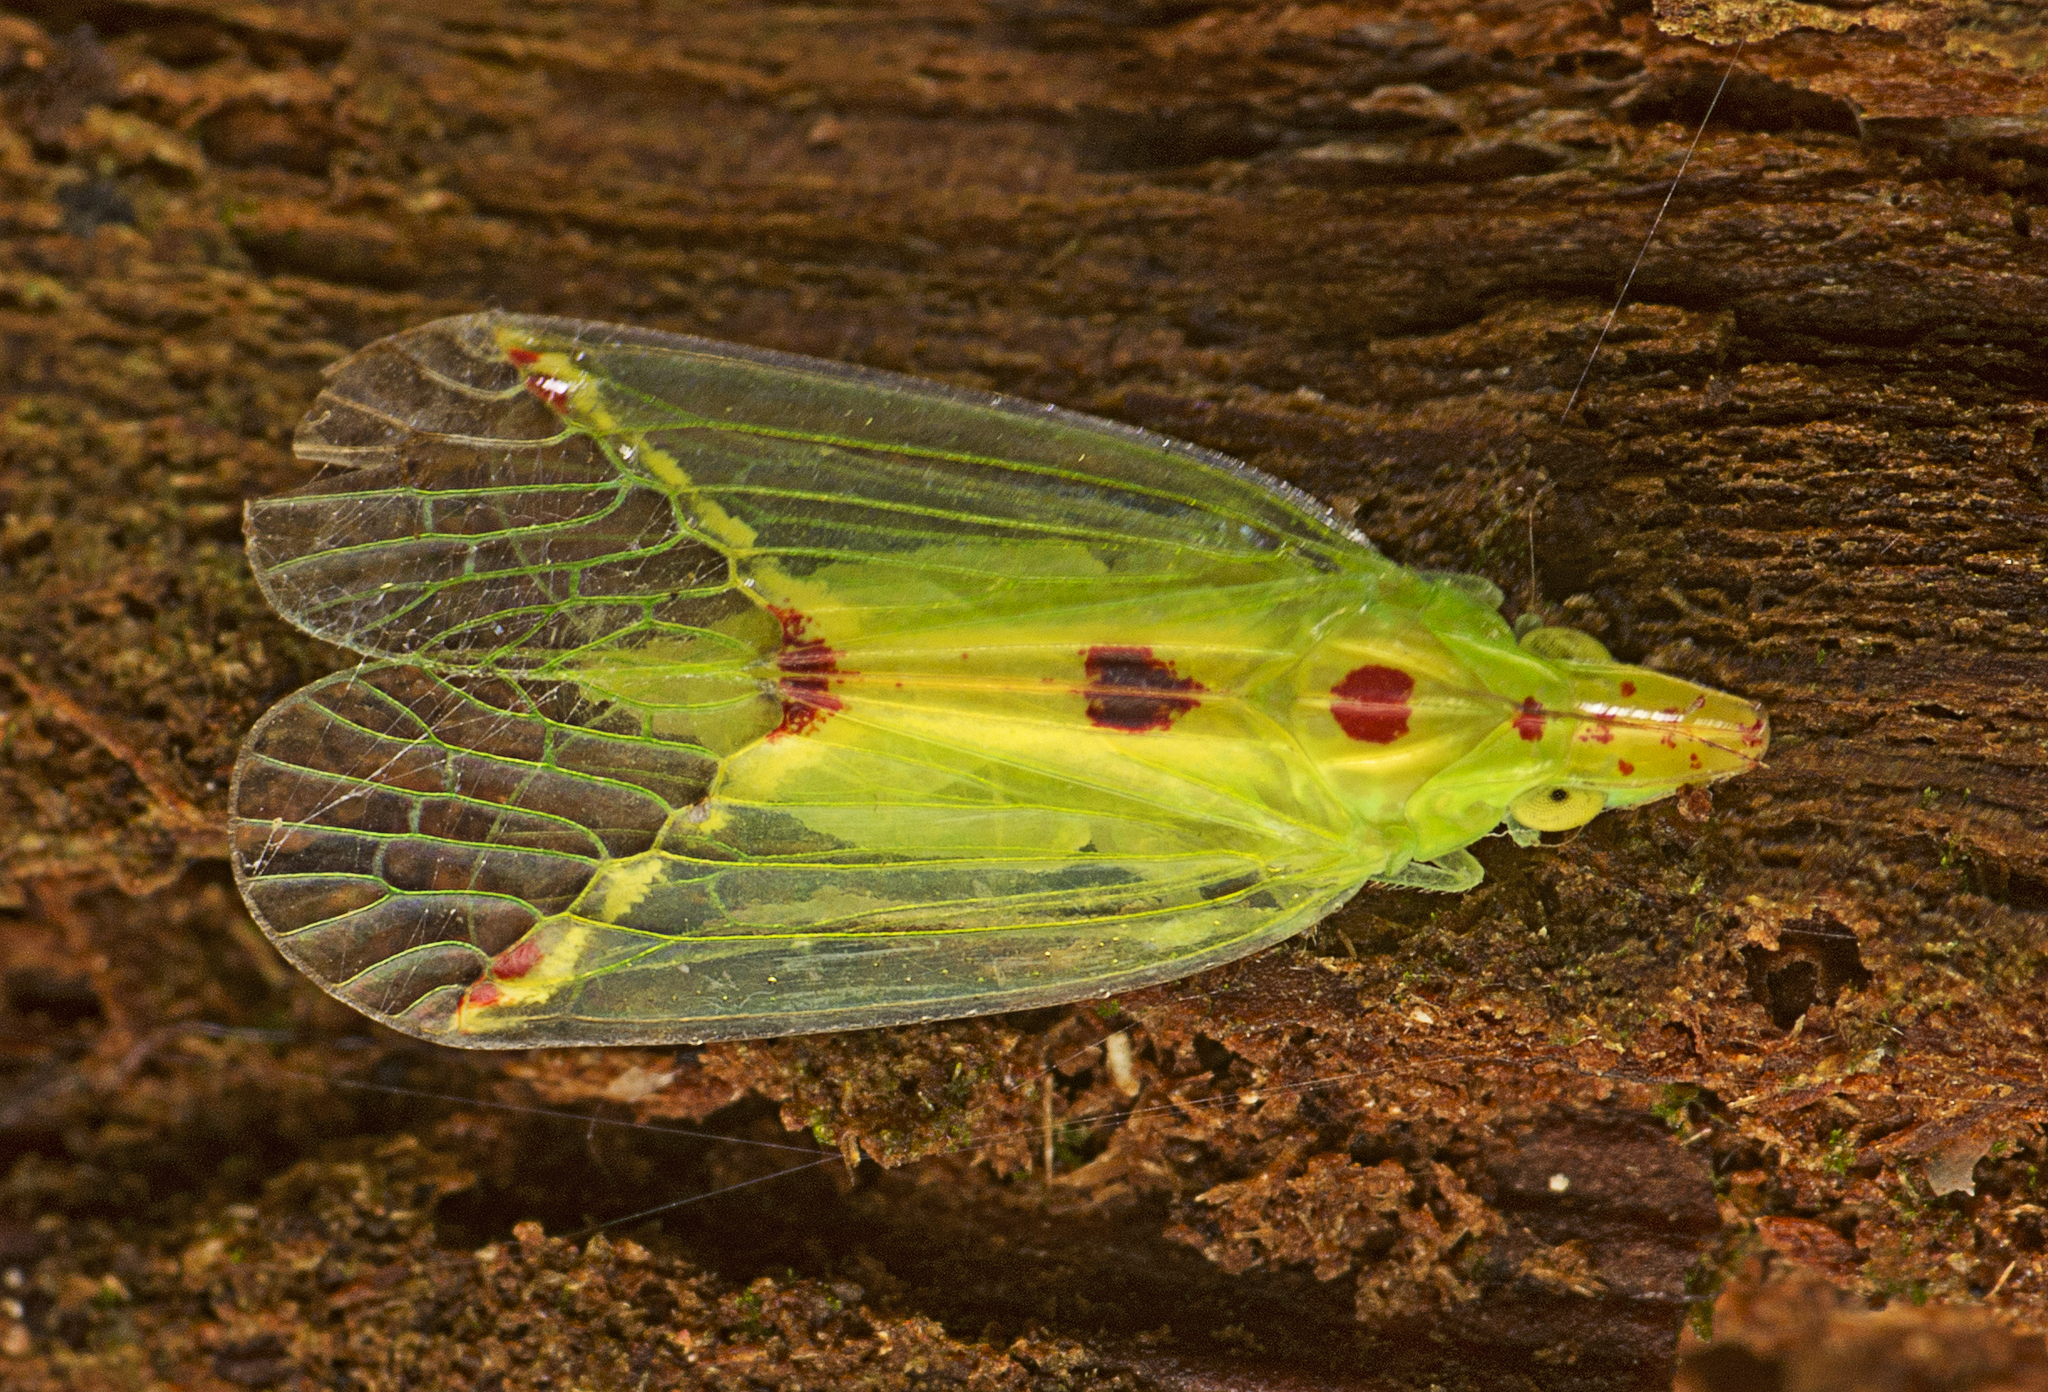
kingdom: Animalia
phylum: Arthropoda
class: Insecta
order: Hemiptera
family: Tropiduchidae
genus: Tambinia
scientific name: Tambinia sexmaculata
